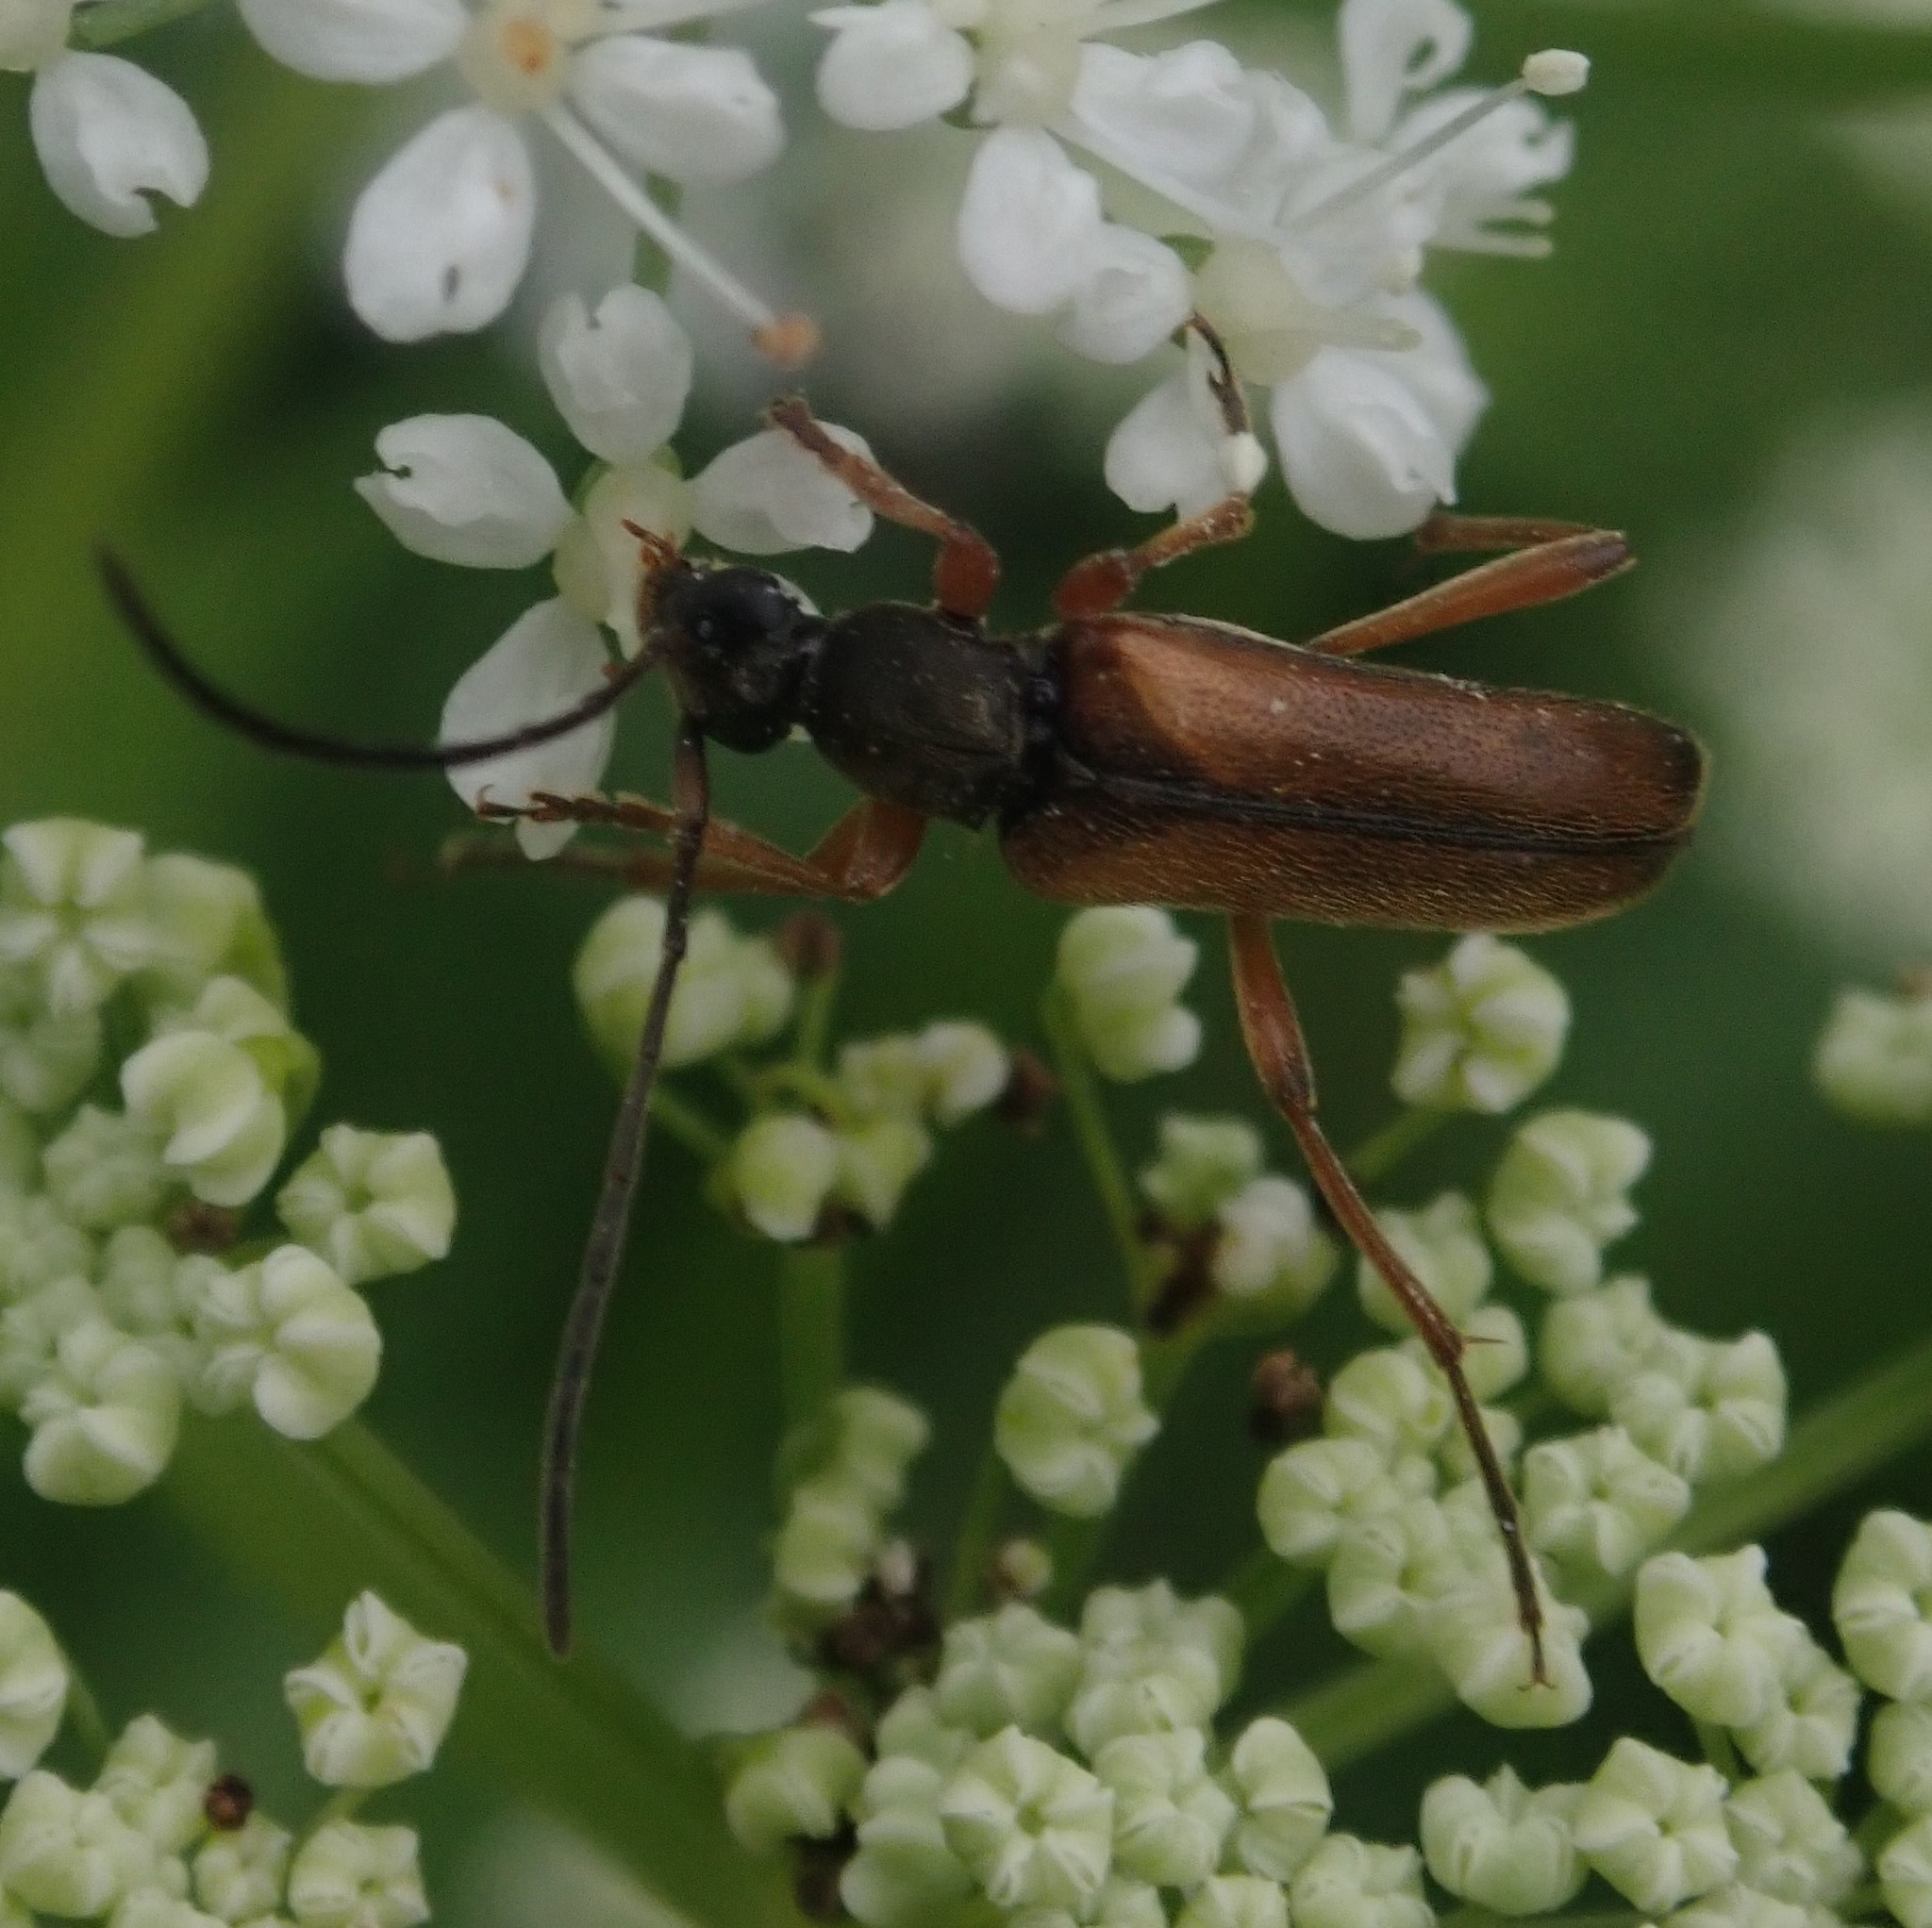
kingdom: Animalia
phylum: Arthropoda
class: Insecta
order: Coleoptera
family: Cerambycidae
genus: Alosterna
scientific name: Alosterna tabacicolor
